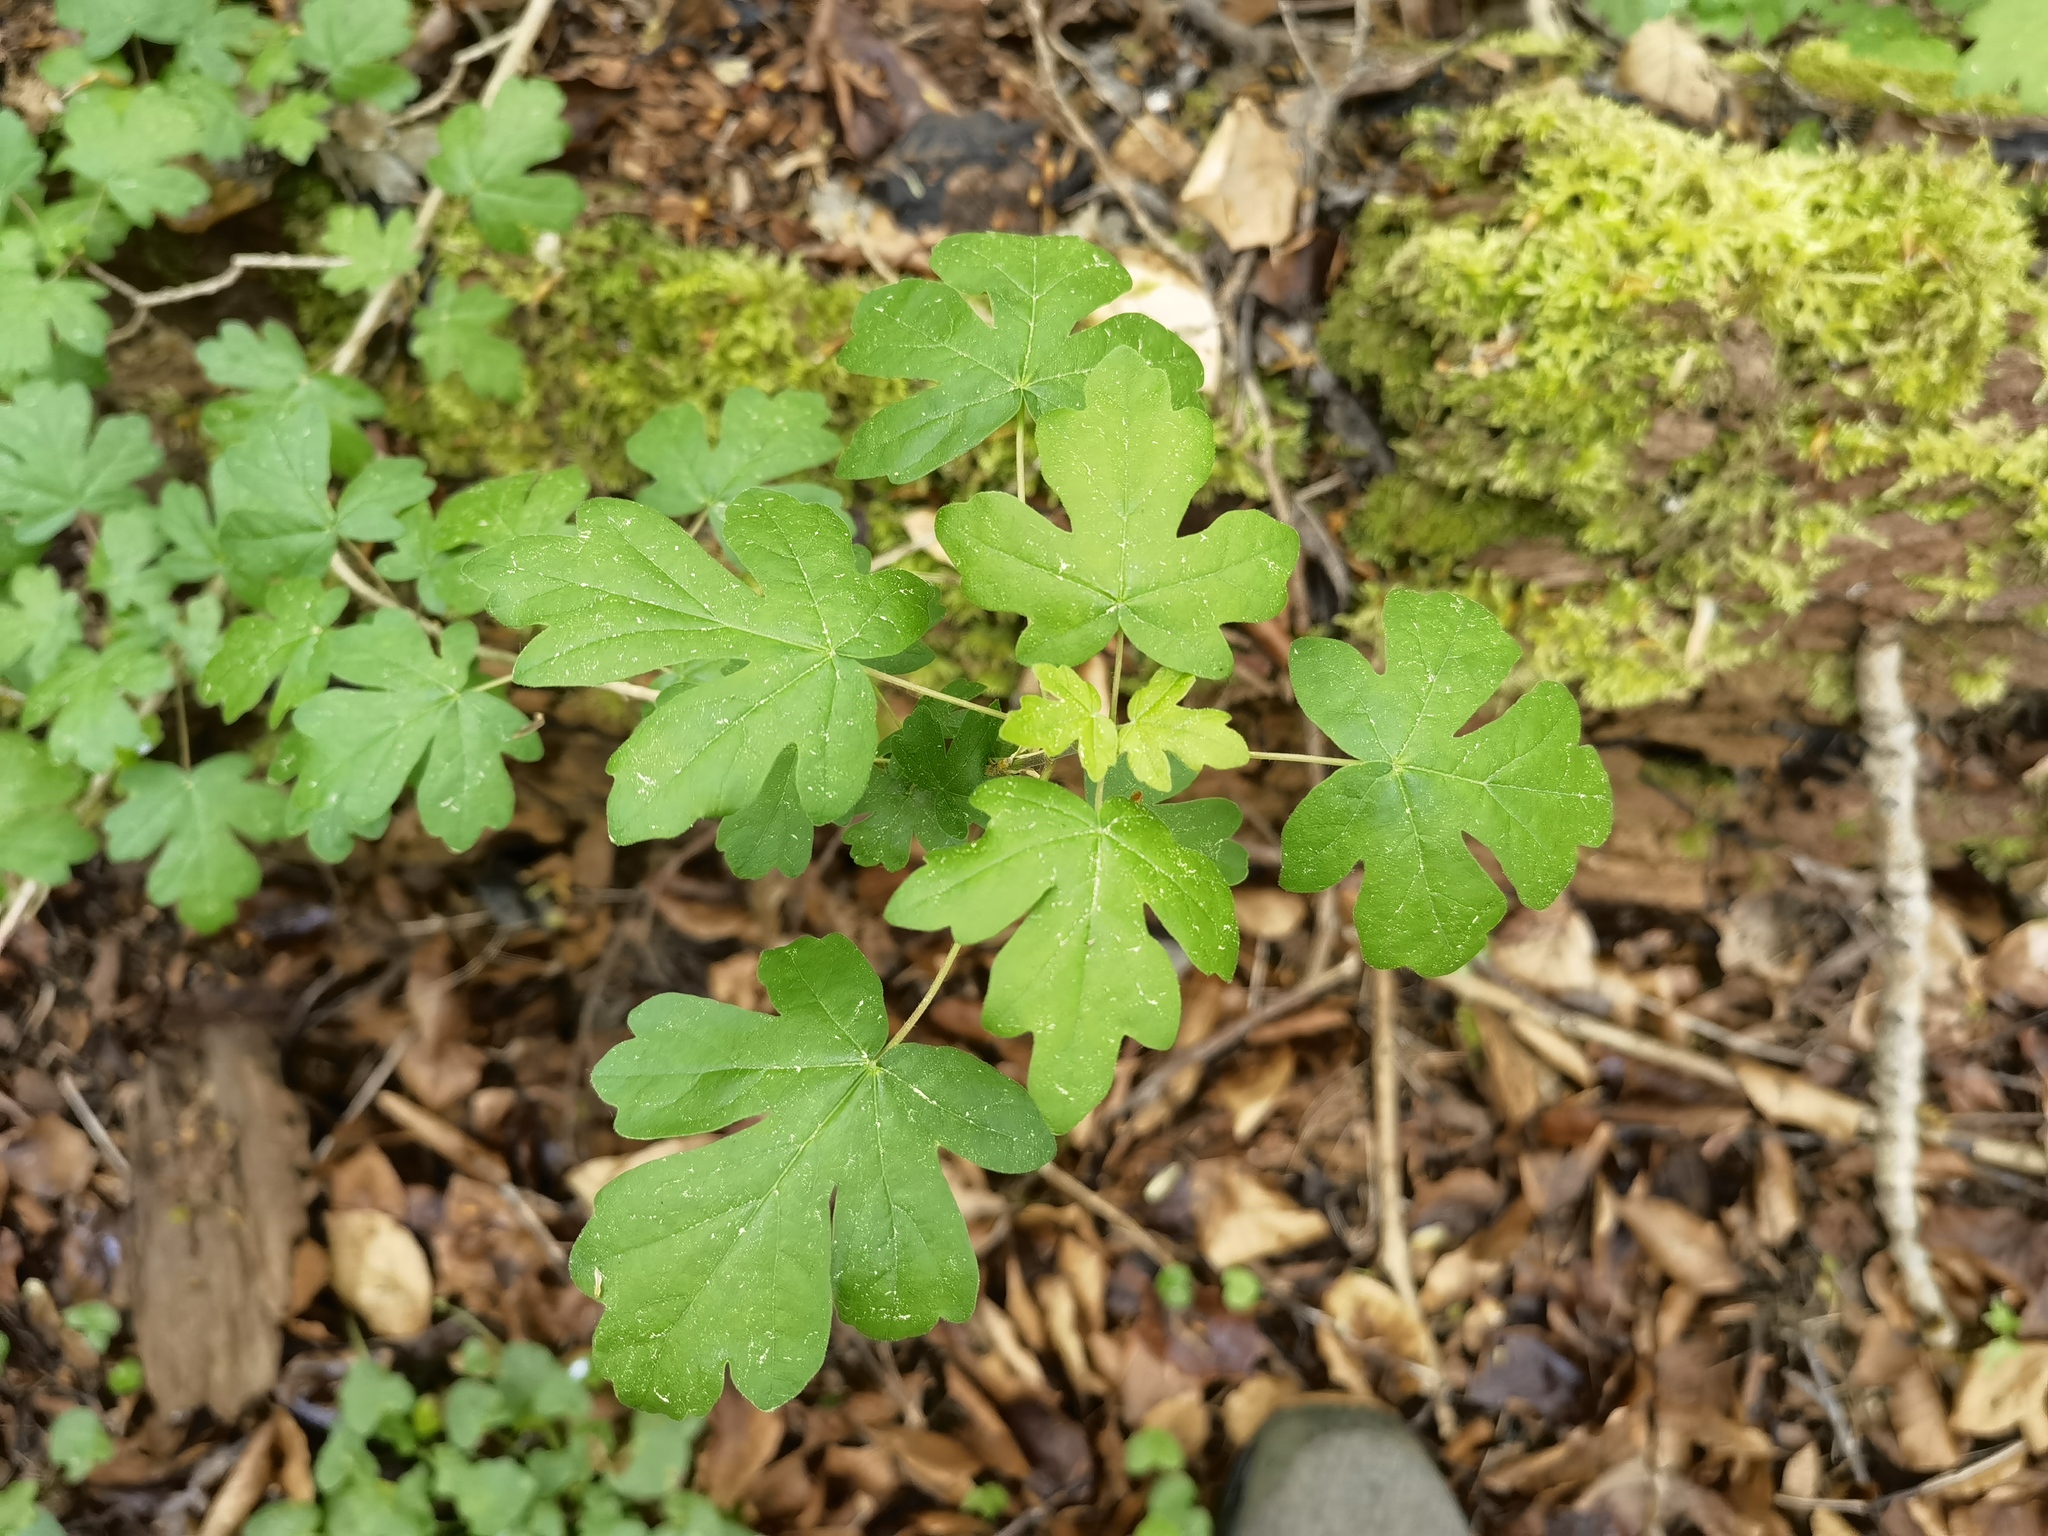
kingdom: Plantae
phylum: Tracheophyta
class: Magnoliopsida
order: Sapindales
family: Sapindaceae
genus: Acer
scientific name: Acer campestre
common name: Field maple
